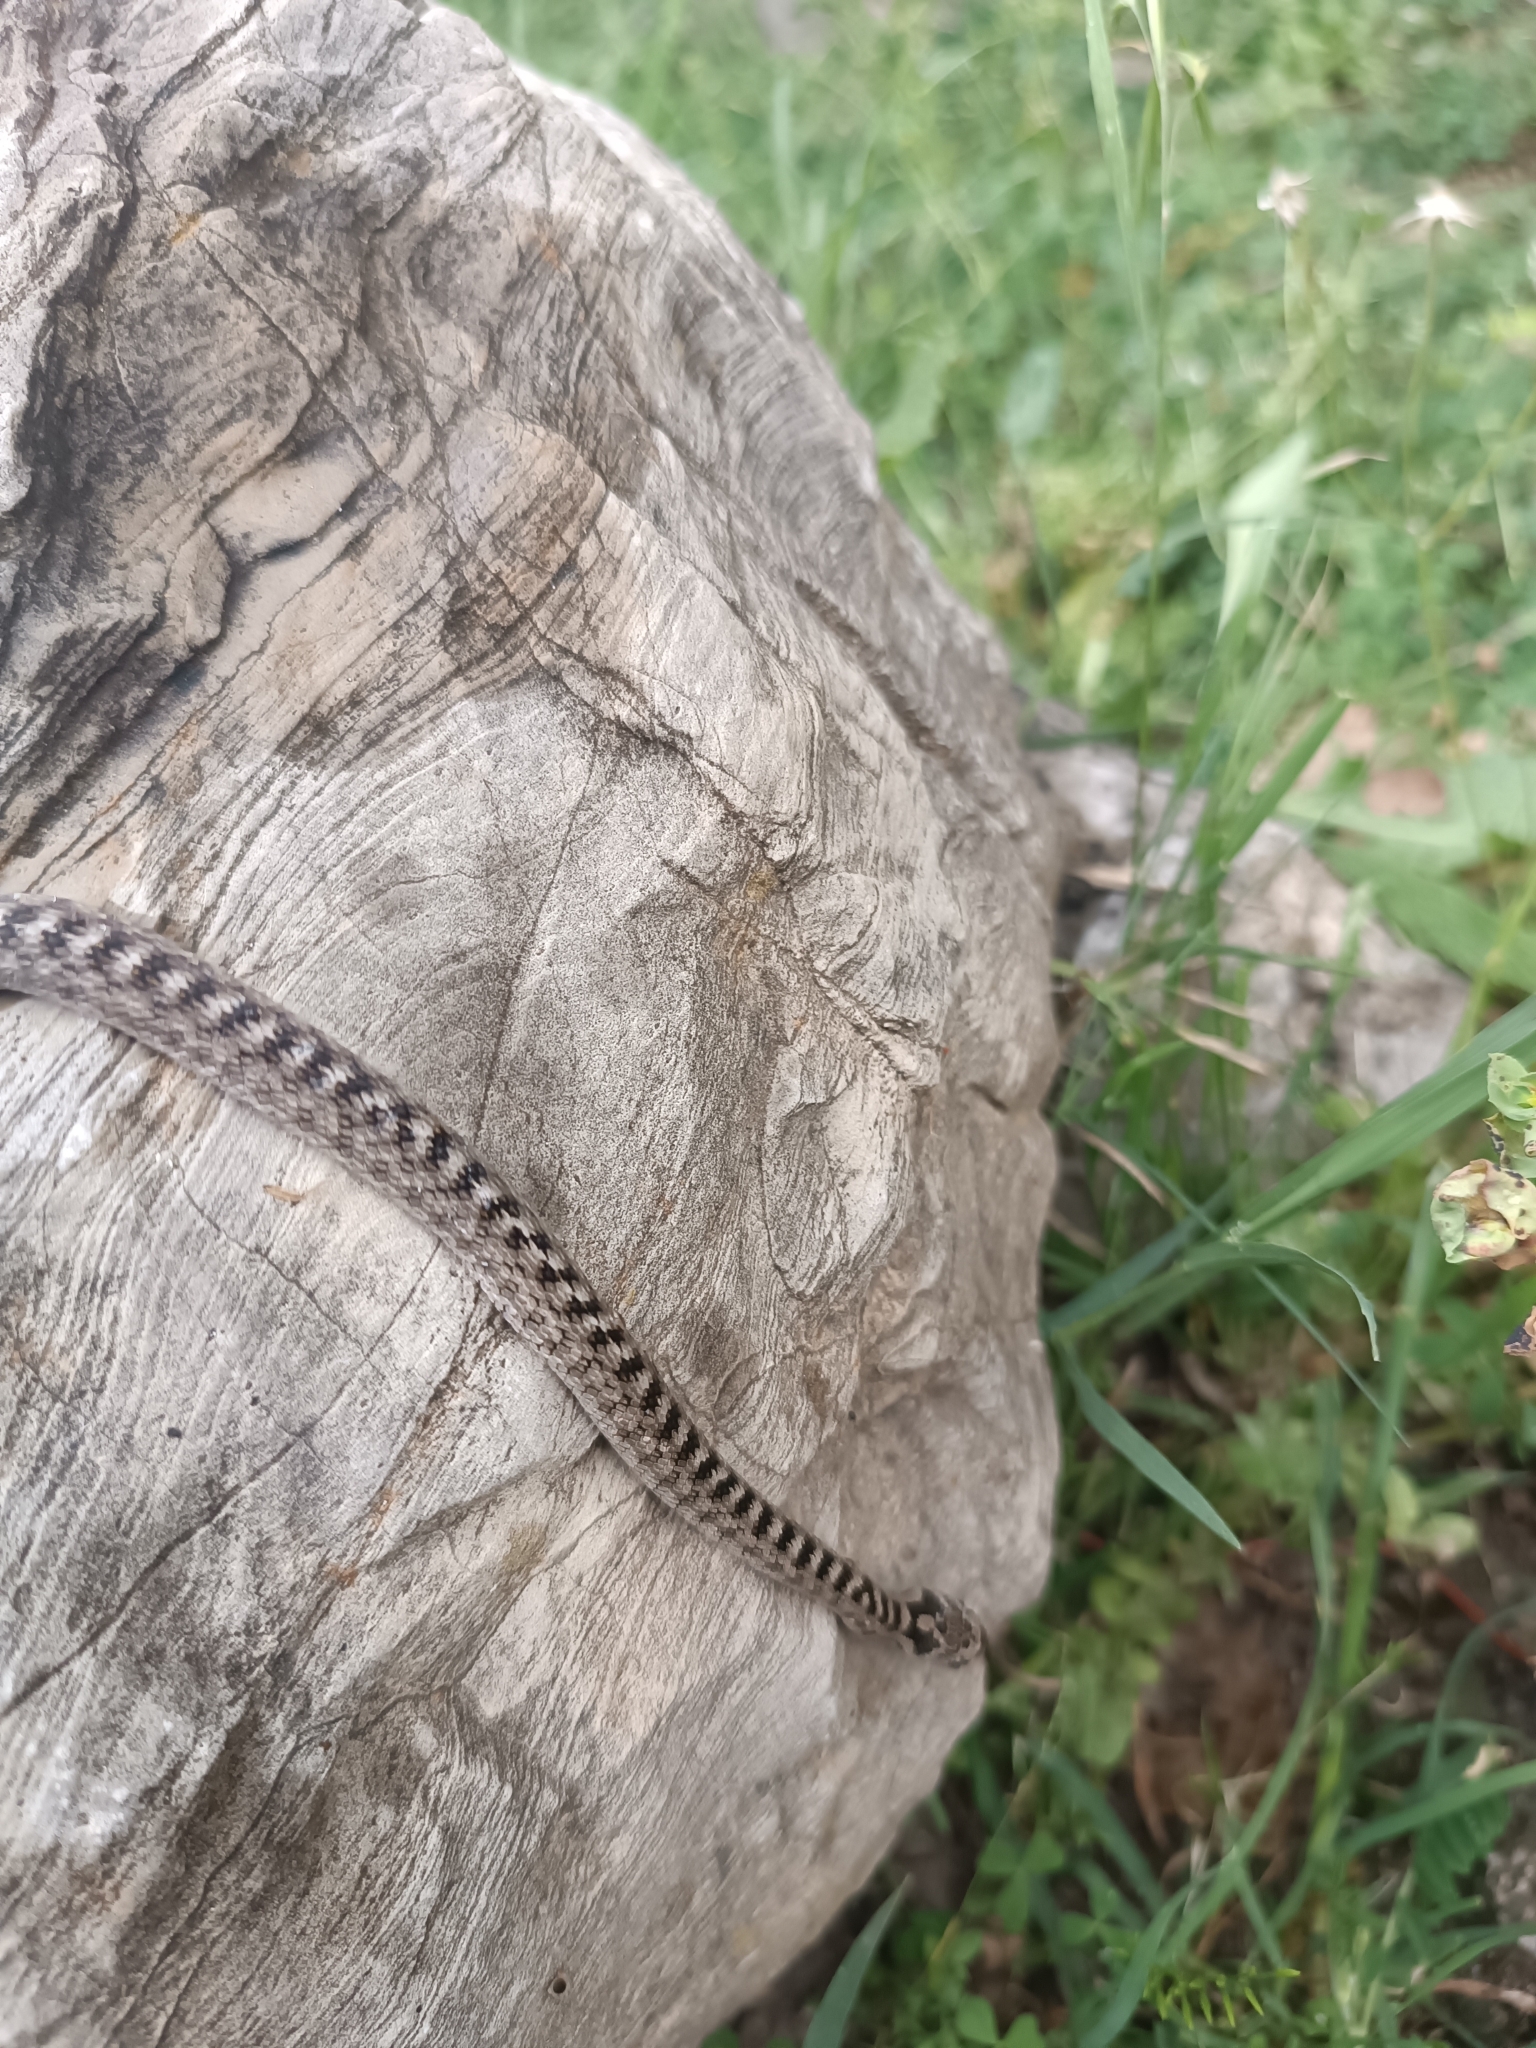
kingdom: Animalia
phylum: Chordata
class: Squamata
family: Colubridae
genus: Coronella
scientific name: Coronella girondica
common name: Southern smooth snake
